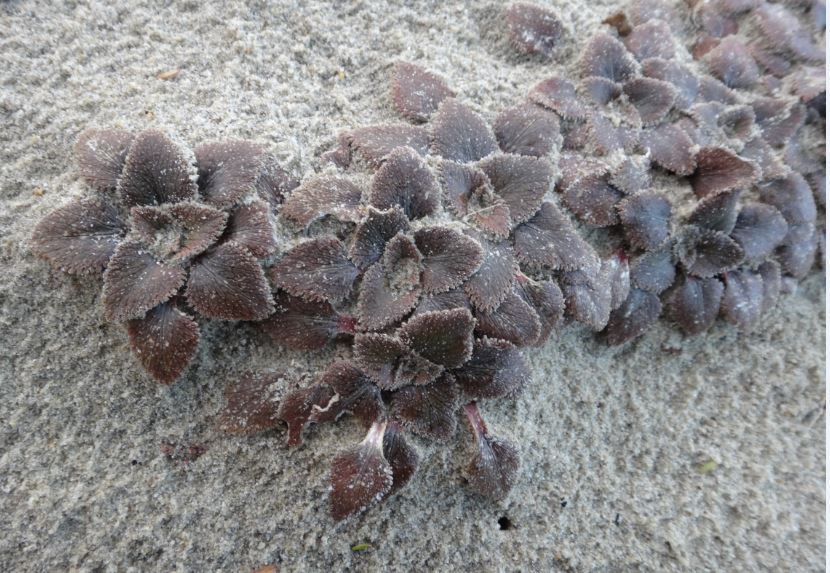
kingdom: Plantae
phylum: Tracheophyta
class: Magnoliopsida
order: Gunnerales
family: Gunneraceae
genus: Gunnera
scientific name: Gunnera hamiltonii
